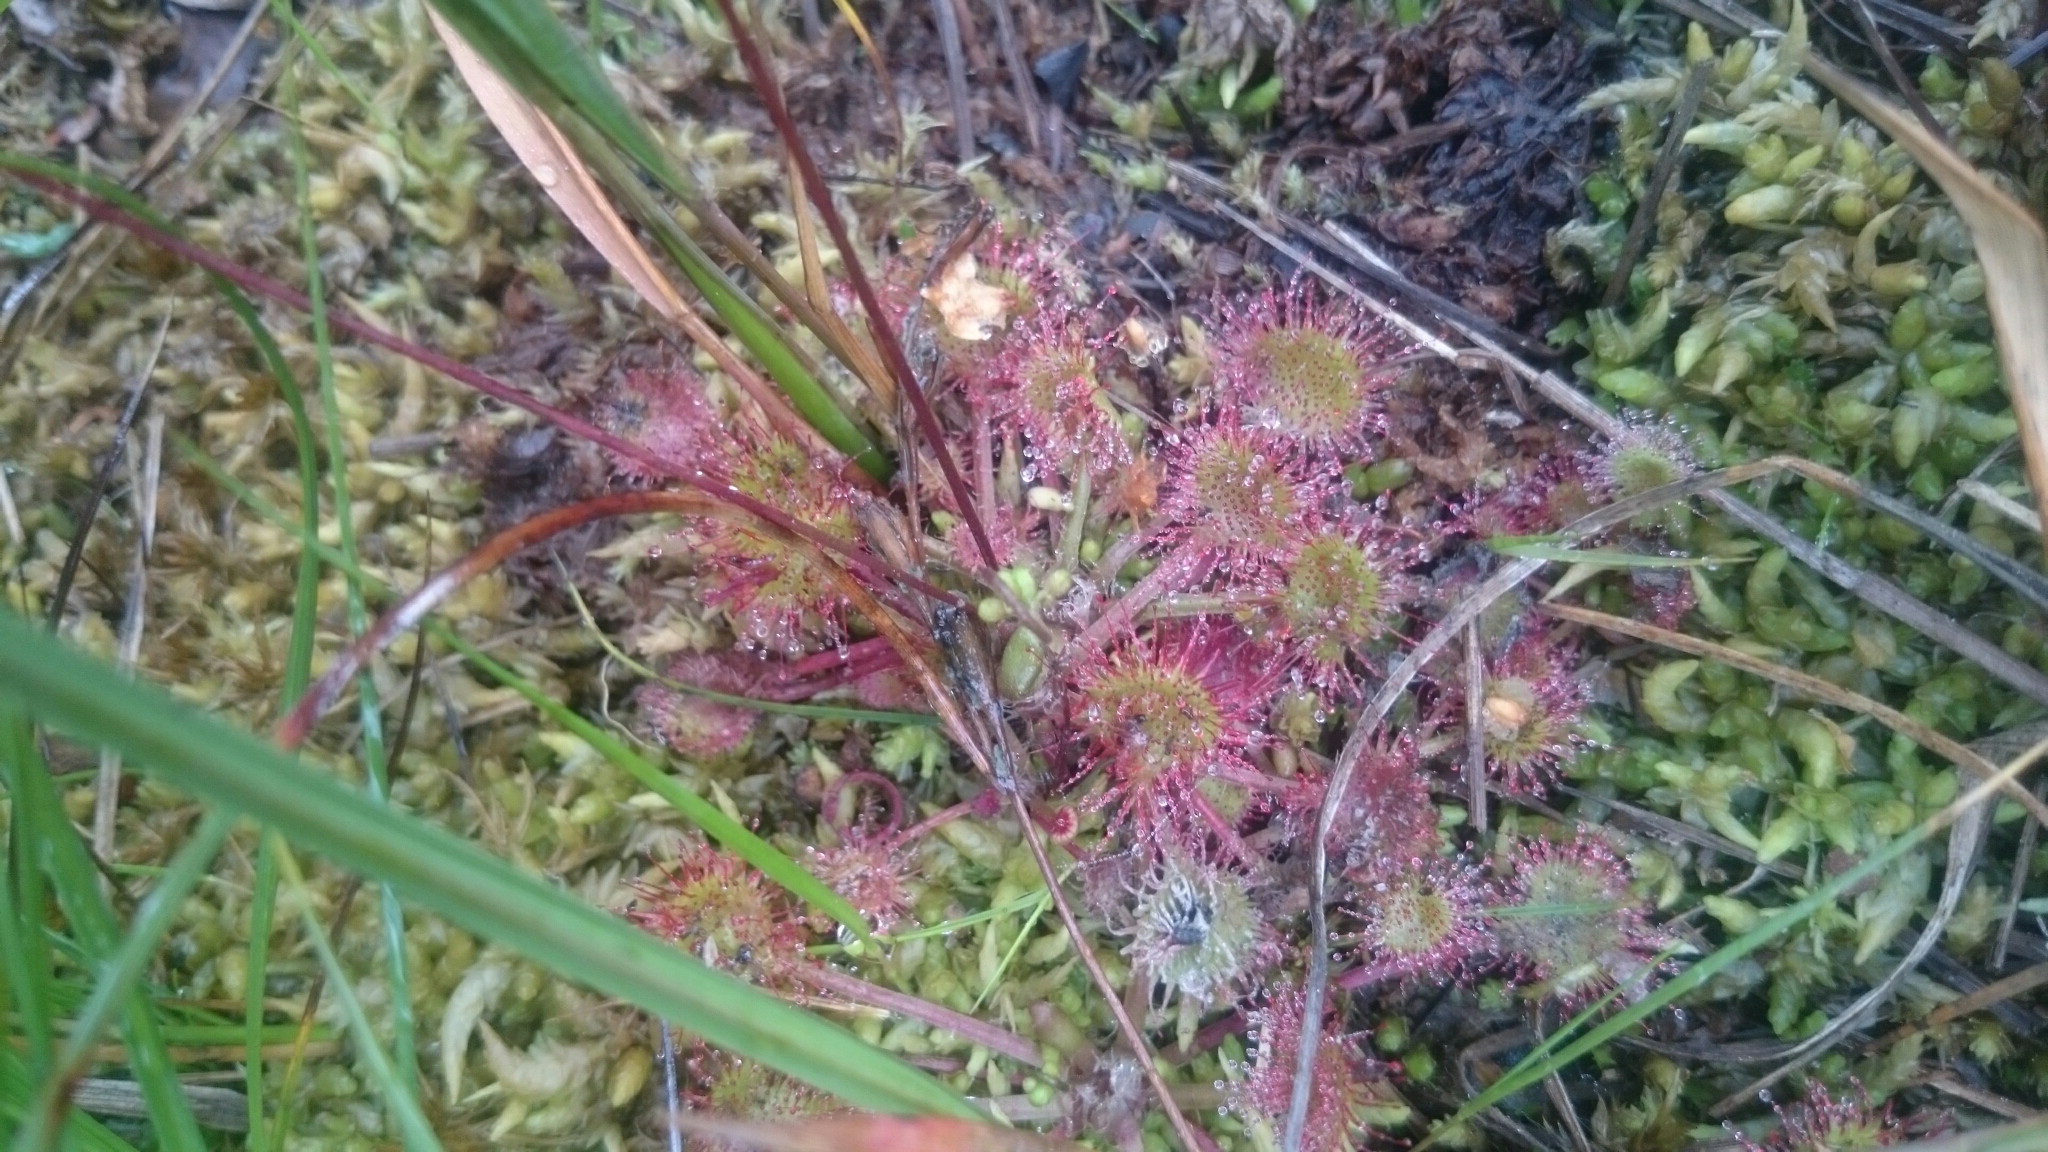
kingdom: Plantae
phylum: Tracheophyta
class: Magnoliopsida
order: Caryophyllales
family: Droseraceae
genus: Drosera
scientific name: Drosera rotundifolia
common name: Round-leaved sundew
